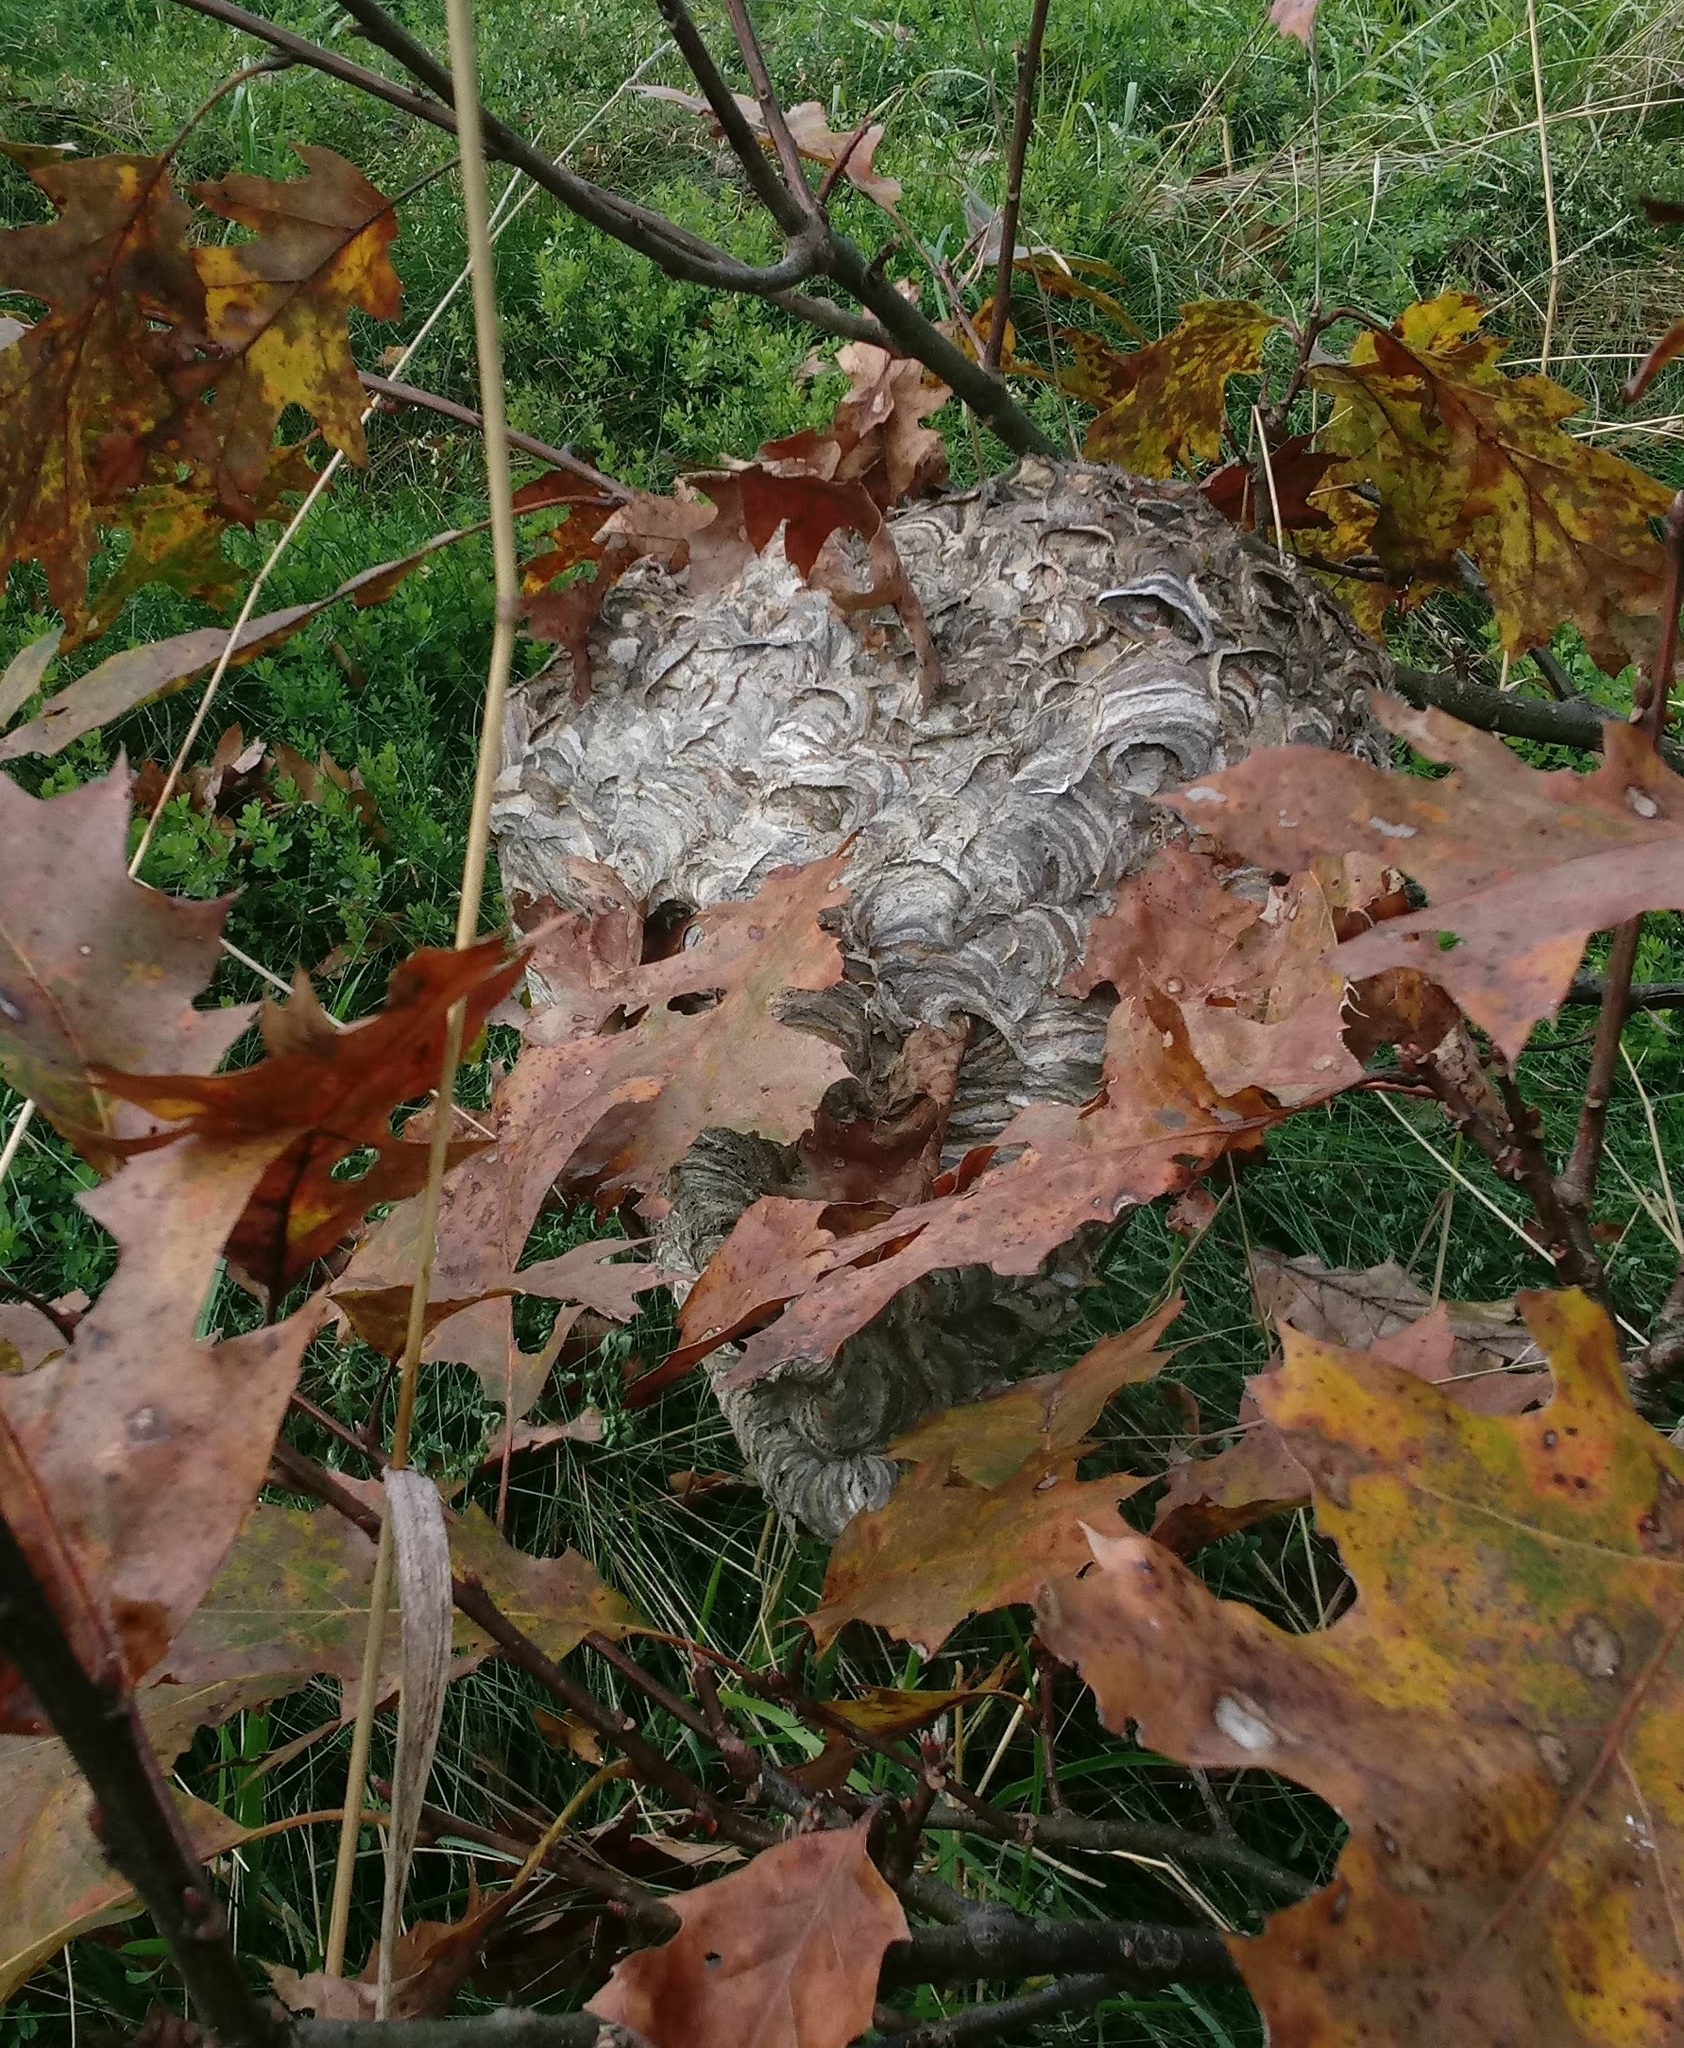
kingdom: Animalia
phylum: Arthropoda
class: Insecta
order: Hymenoptera
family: Vespidae
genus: Dolichovespula
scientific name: Dolichovespula maculata
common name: Bald-faced hornet
